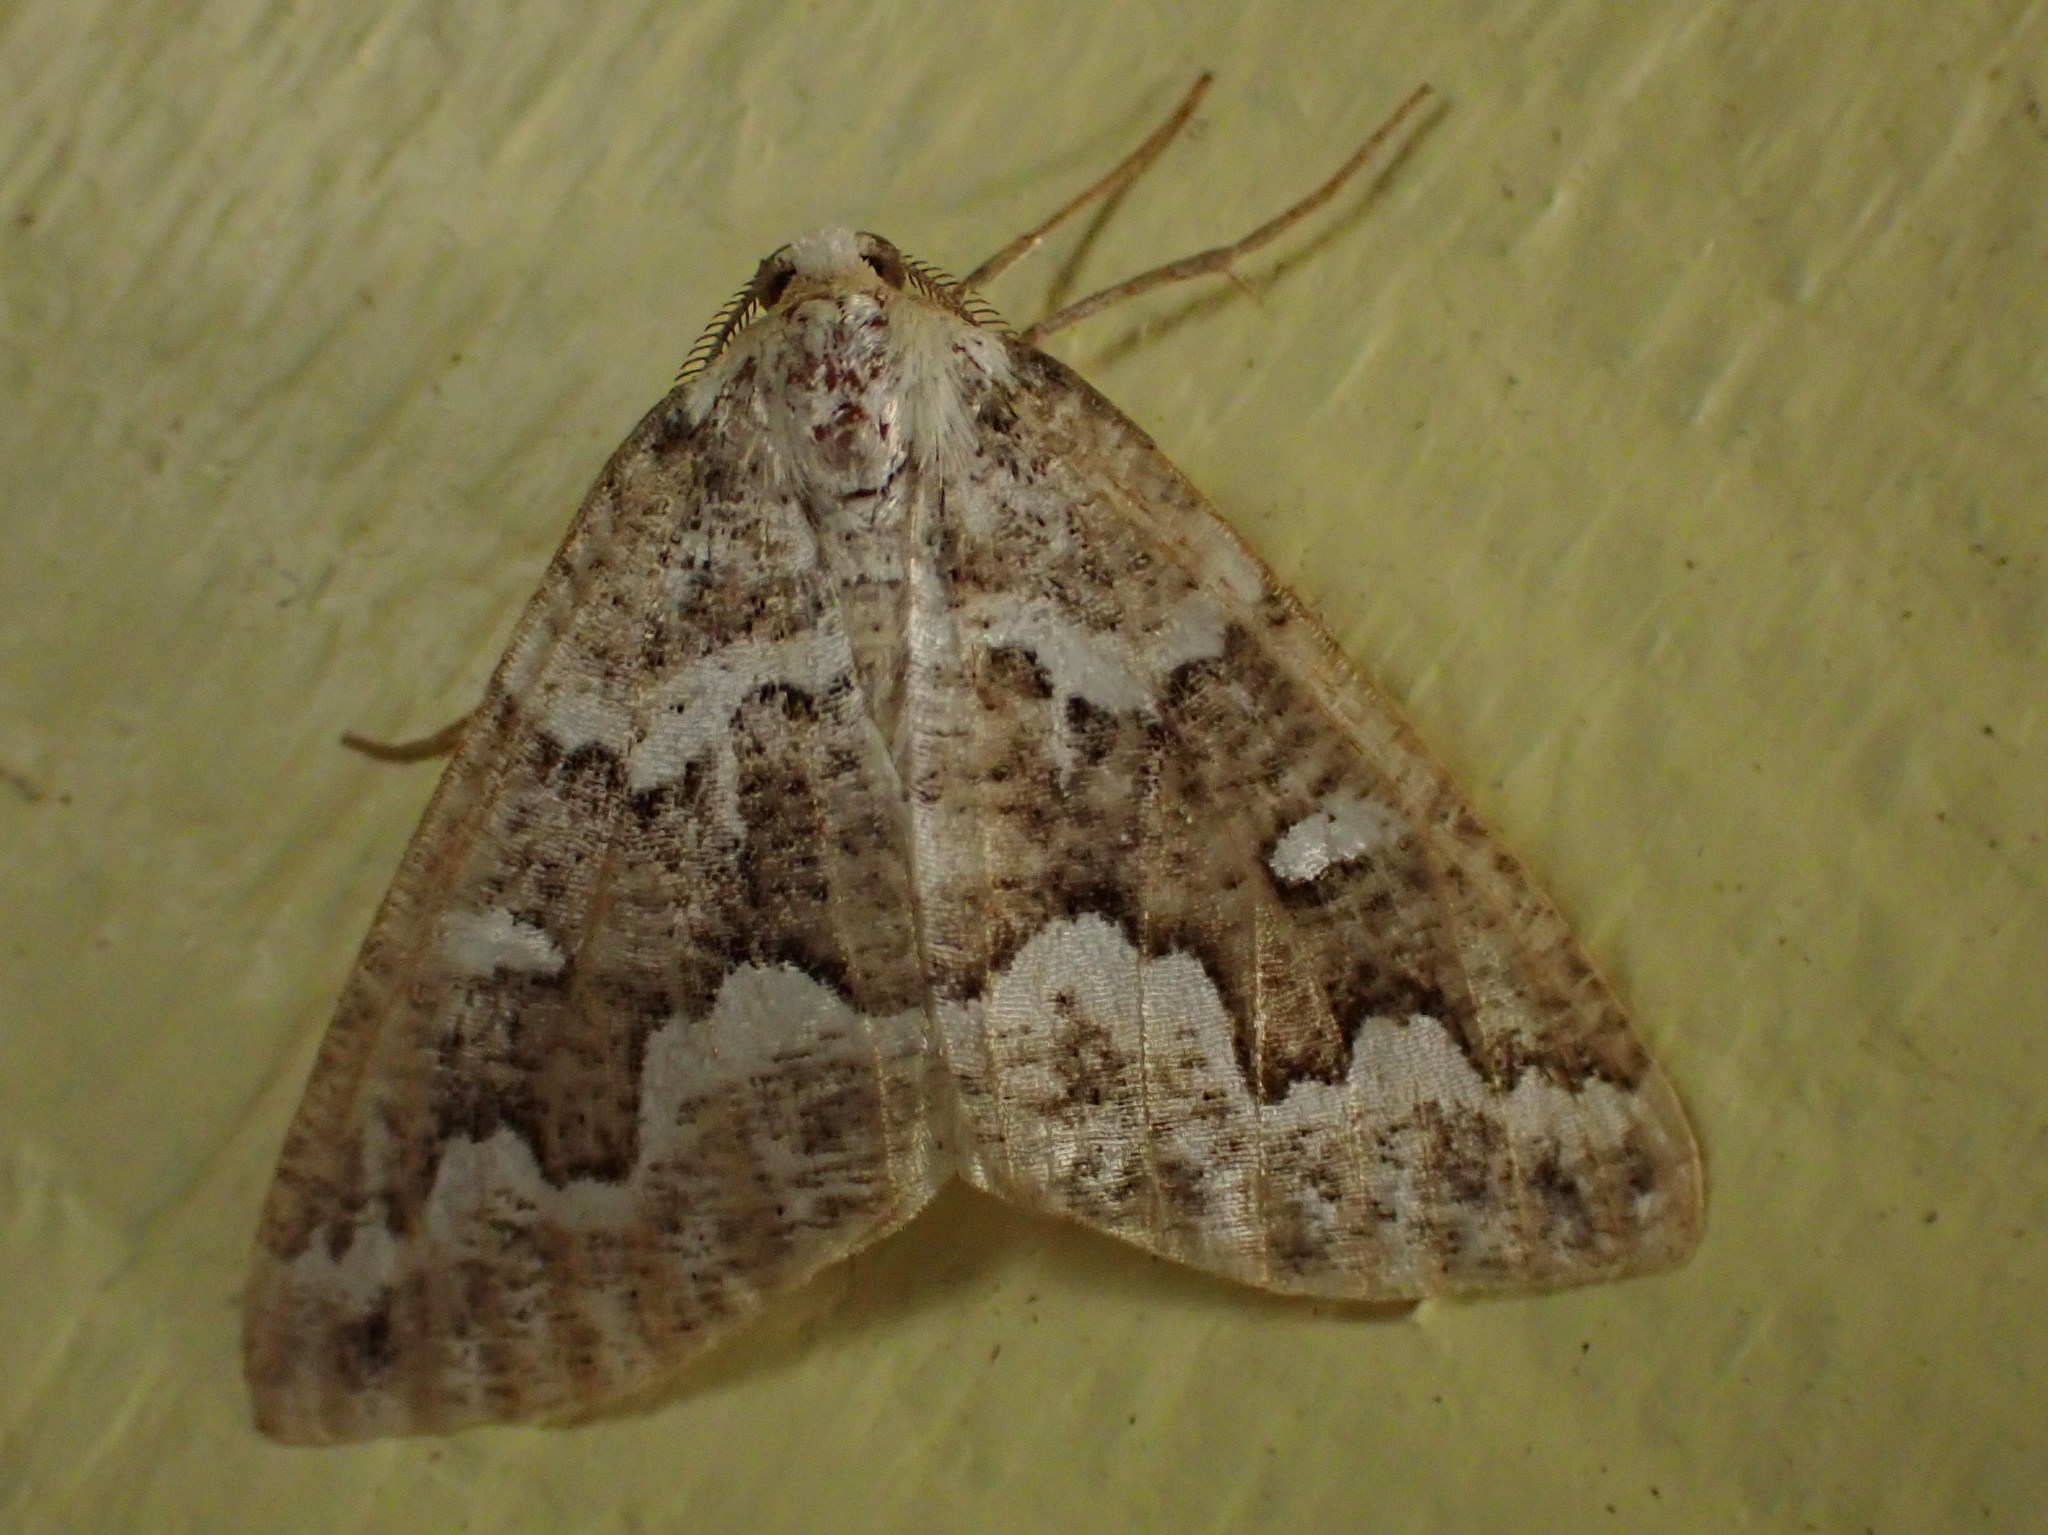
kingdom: Animalia
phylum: Arthropoda
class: Insecta
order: Lepidoptera
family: Geometridae
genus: Caripeta
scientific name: Caripeta divisata
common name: Gray spruce looper
